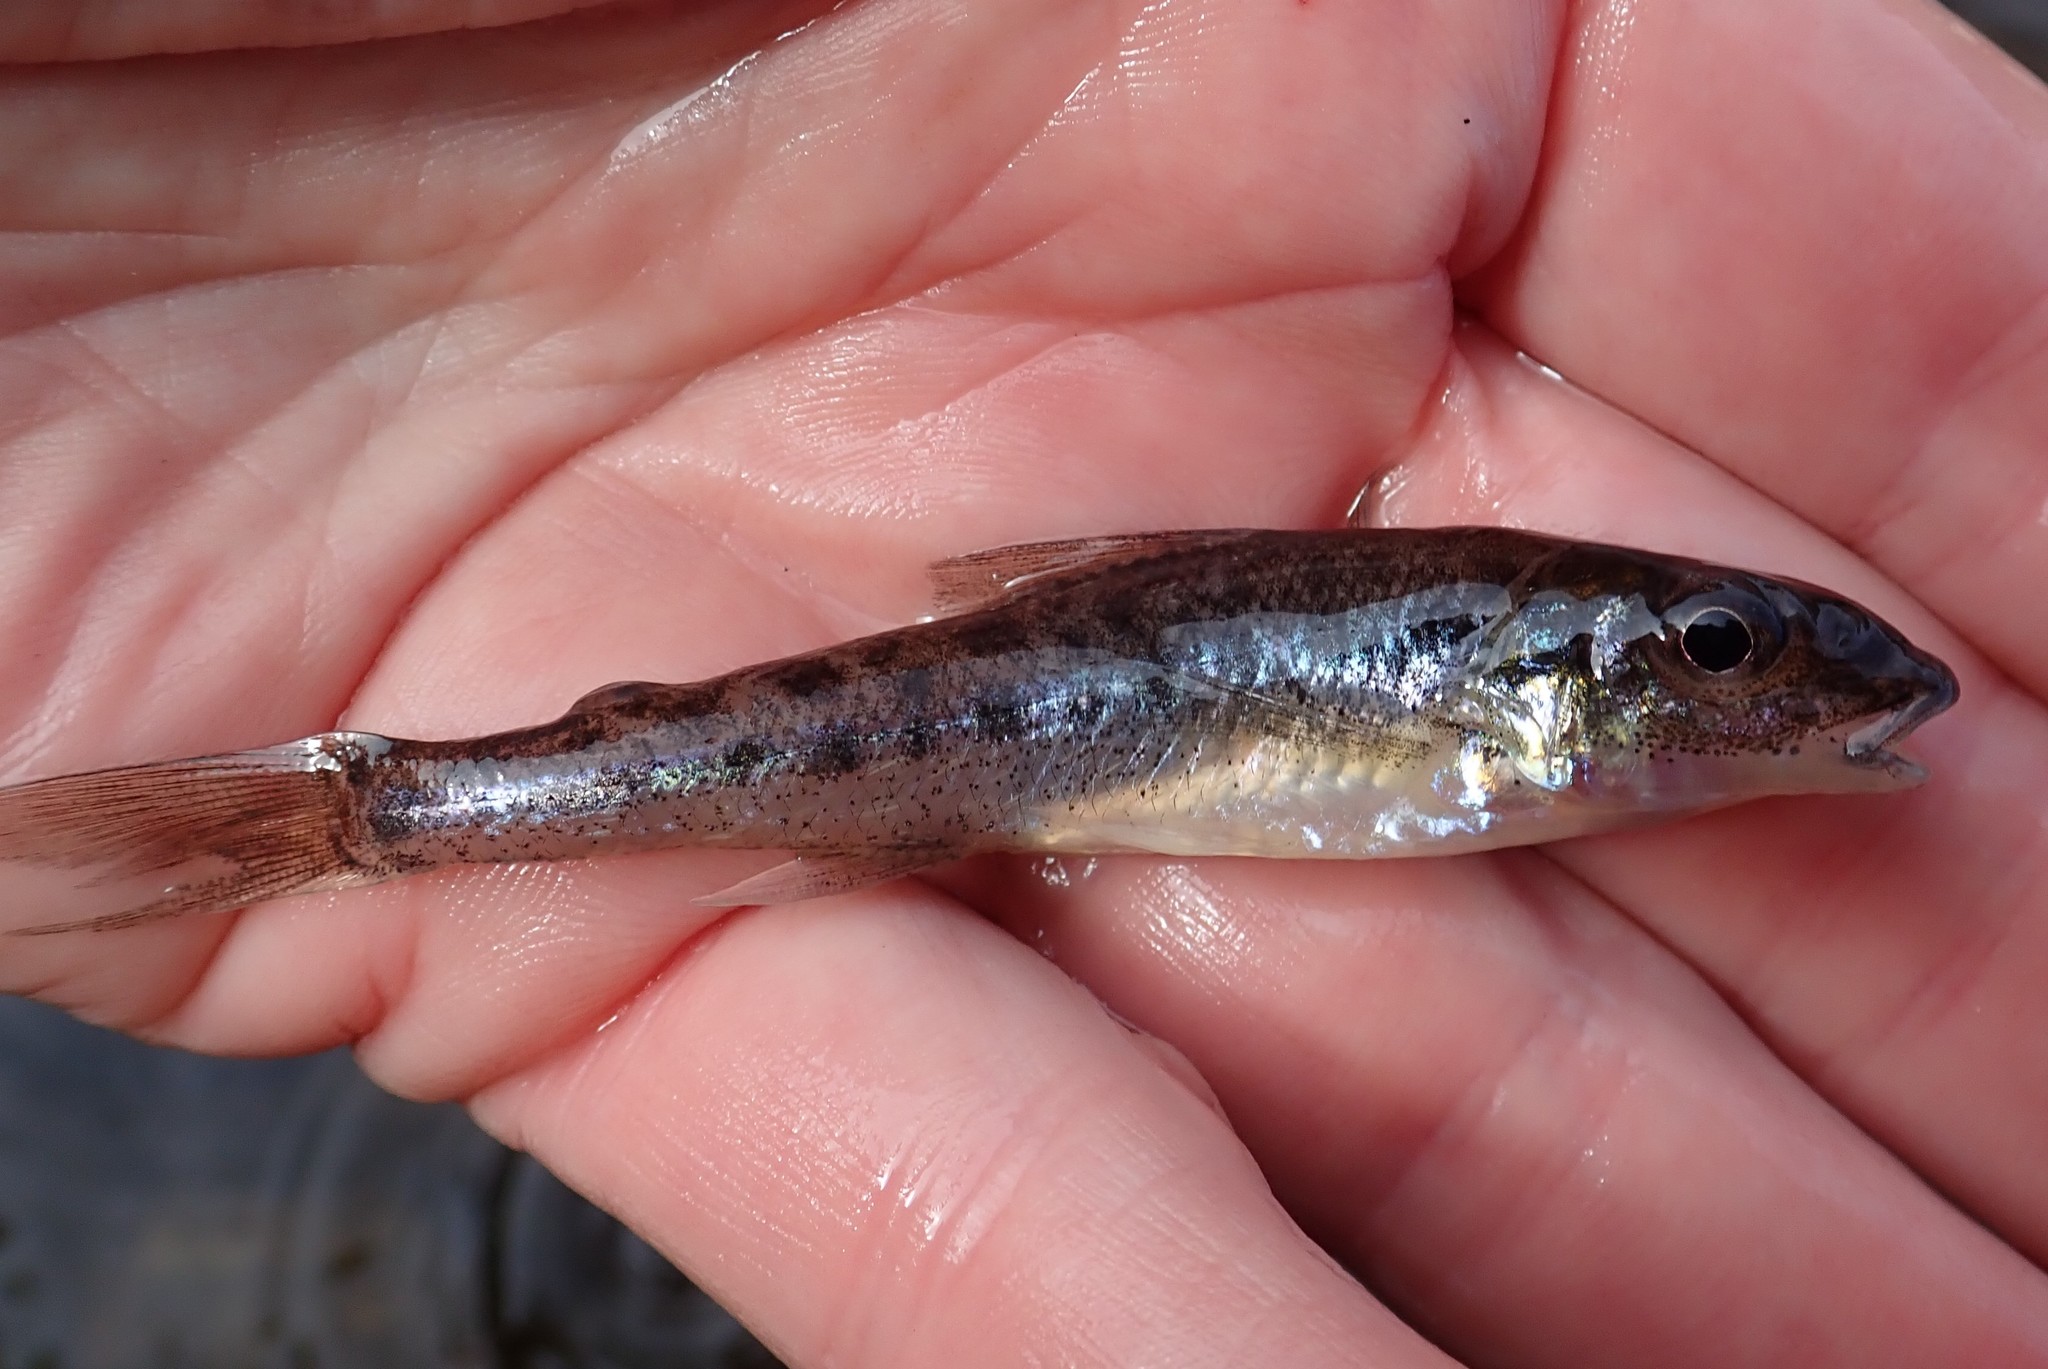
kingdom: Animalia
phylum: Chordata
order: Percopsiformes
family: Percopsidae
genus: Percopsis
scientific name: Percopsis omiscomaycus
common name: Trout-perch
